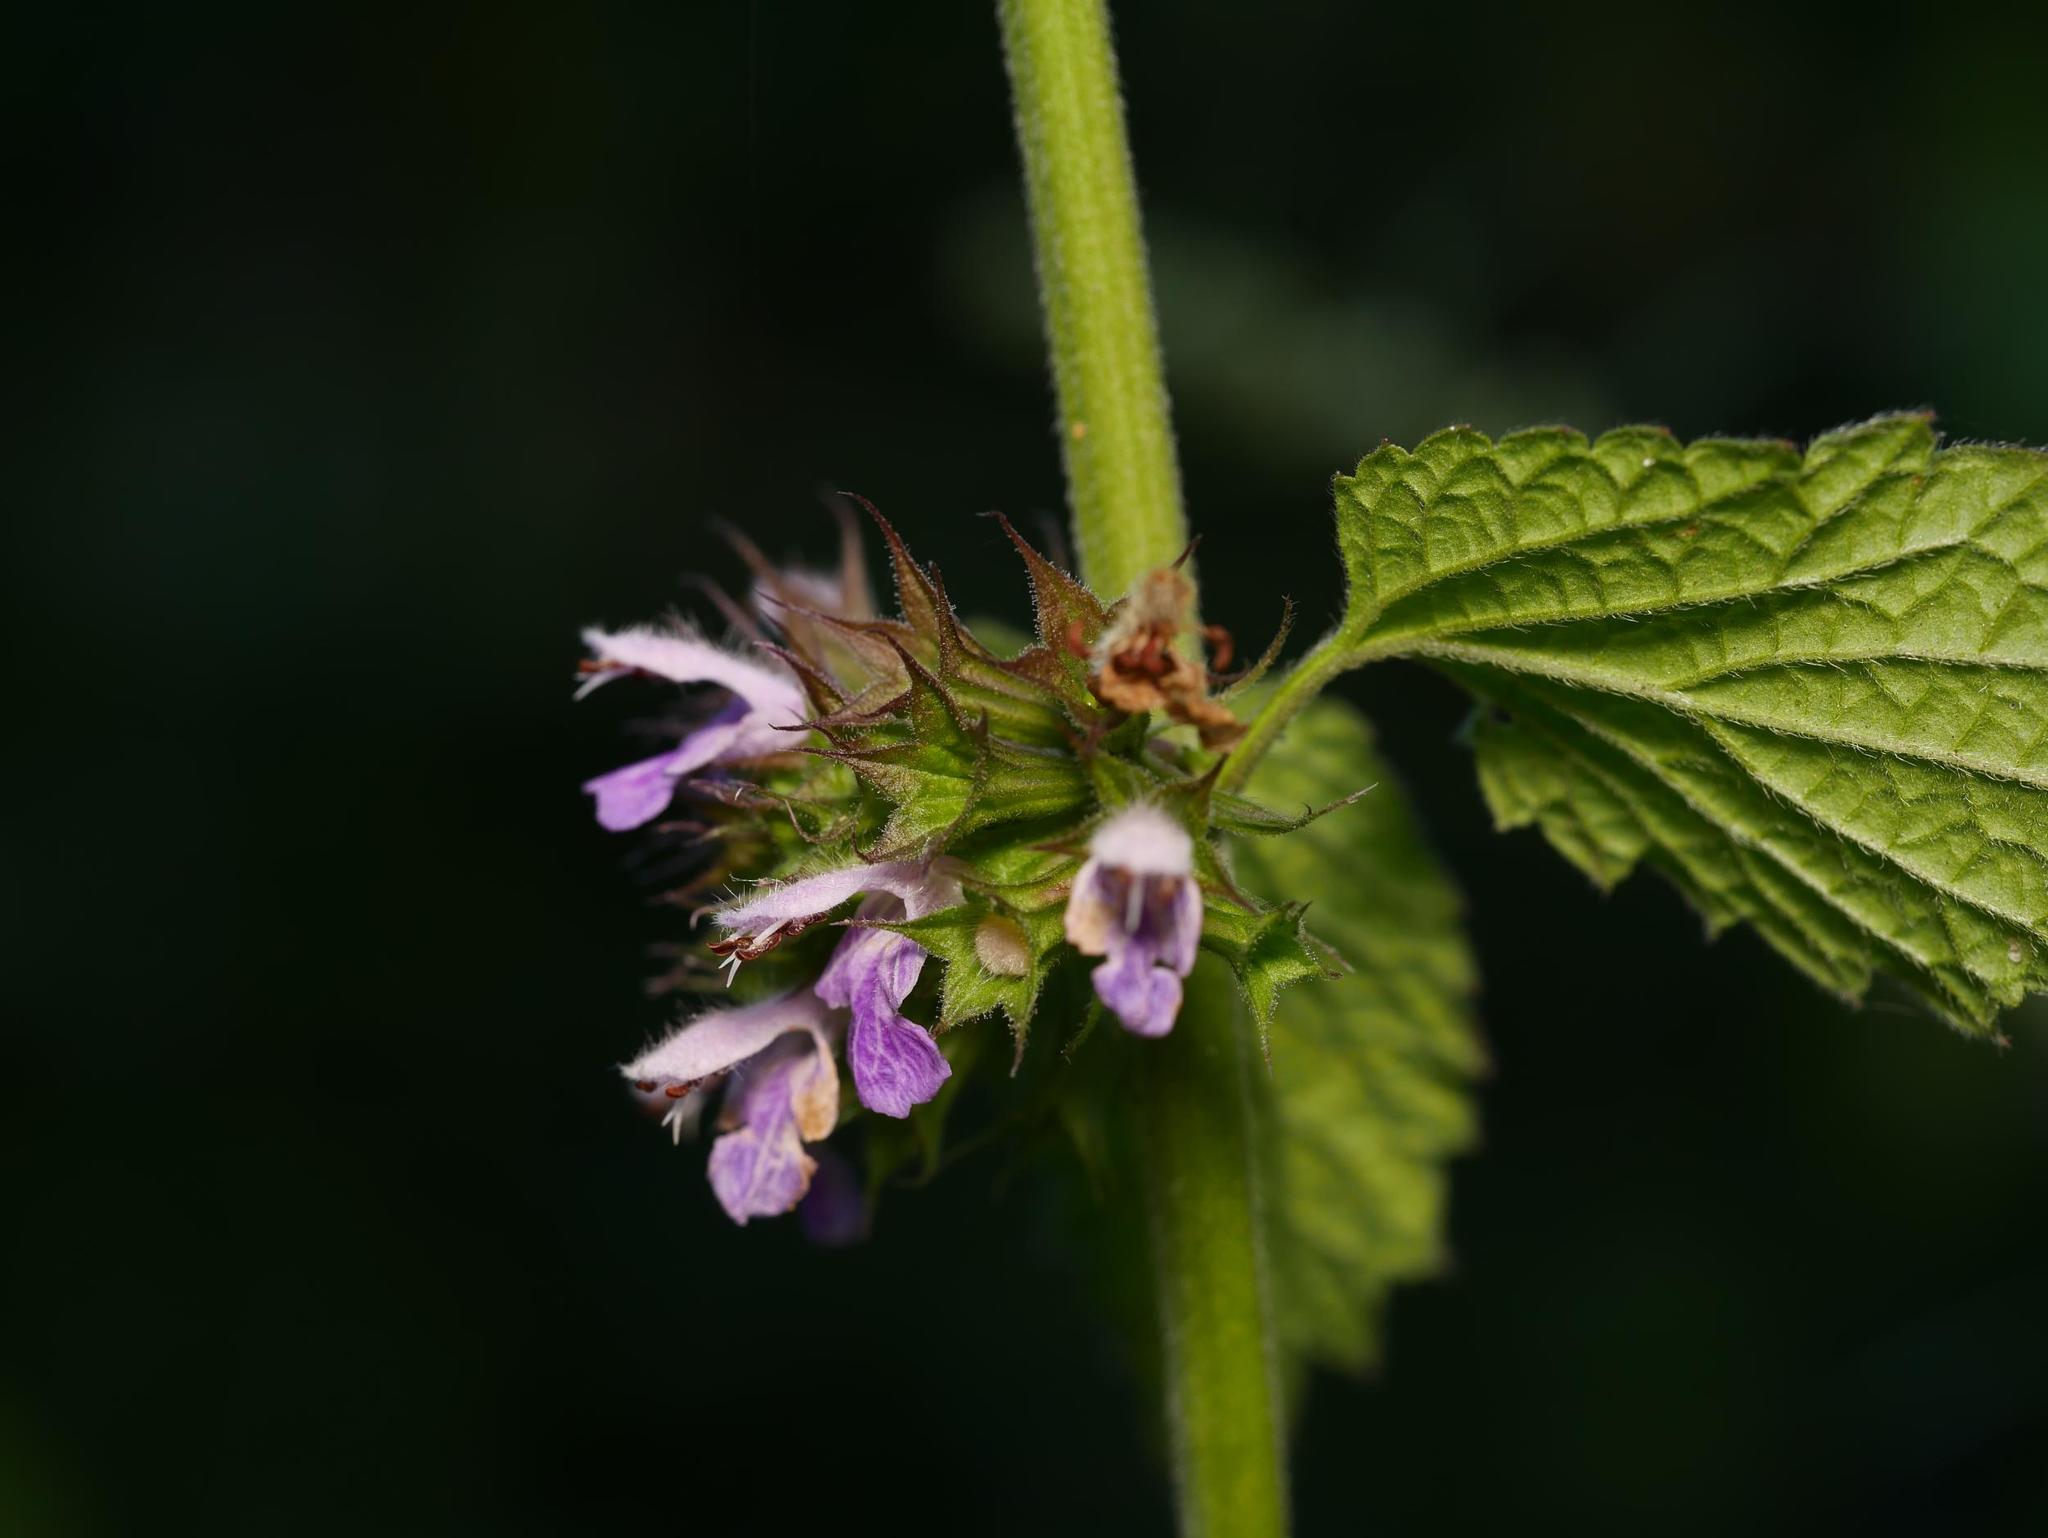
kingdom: Plantae
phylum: Tracheophyta
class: Magnoliopsida
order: Lamiales
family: Lamiaceae
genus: Ballota
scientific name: Ballota nigra
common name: Black horehound
